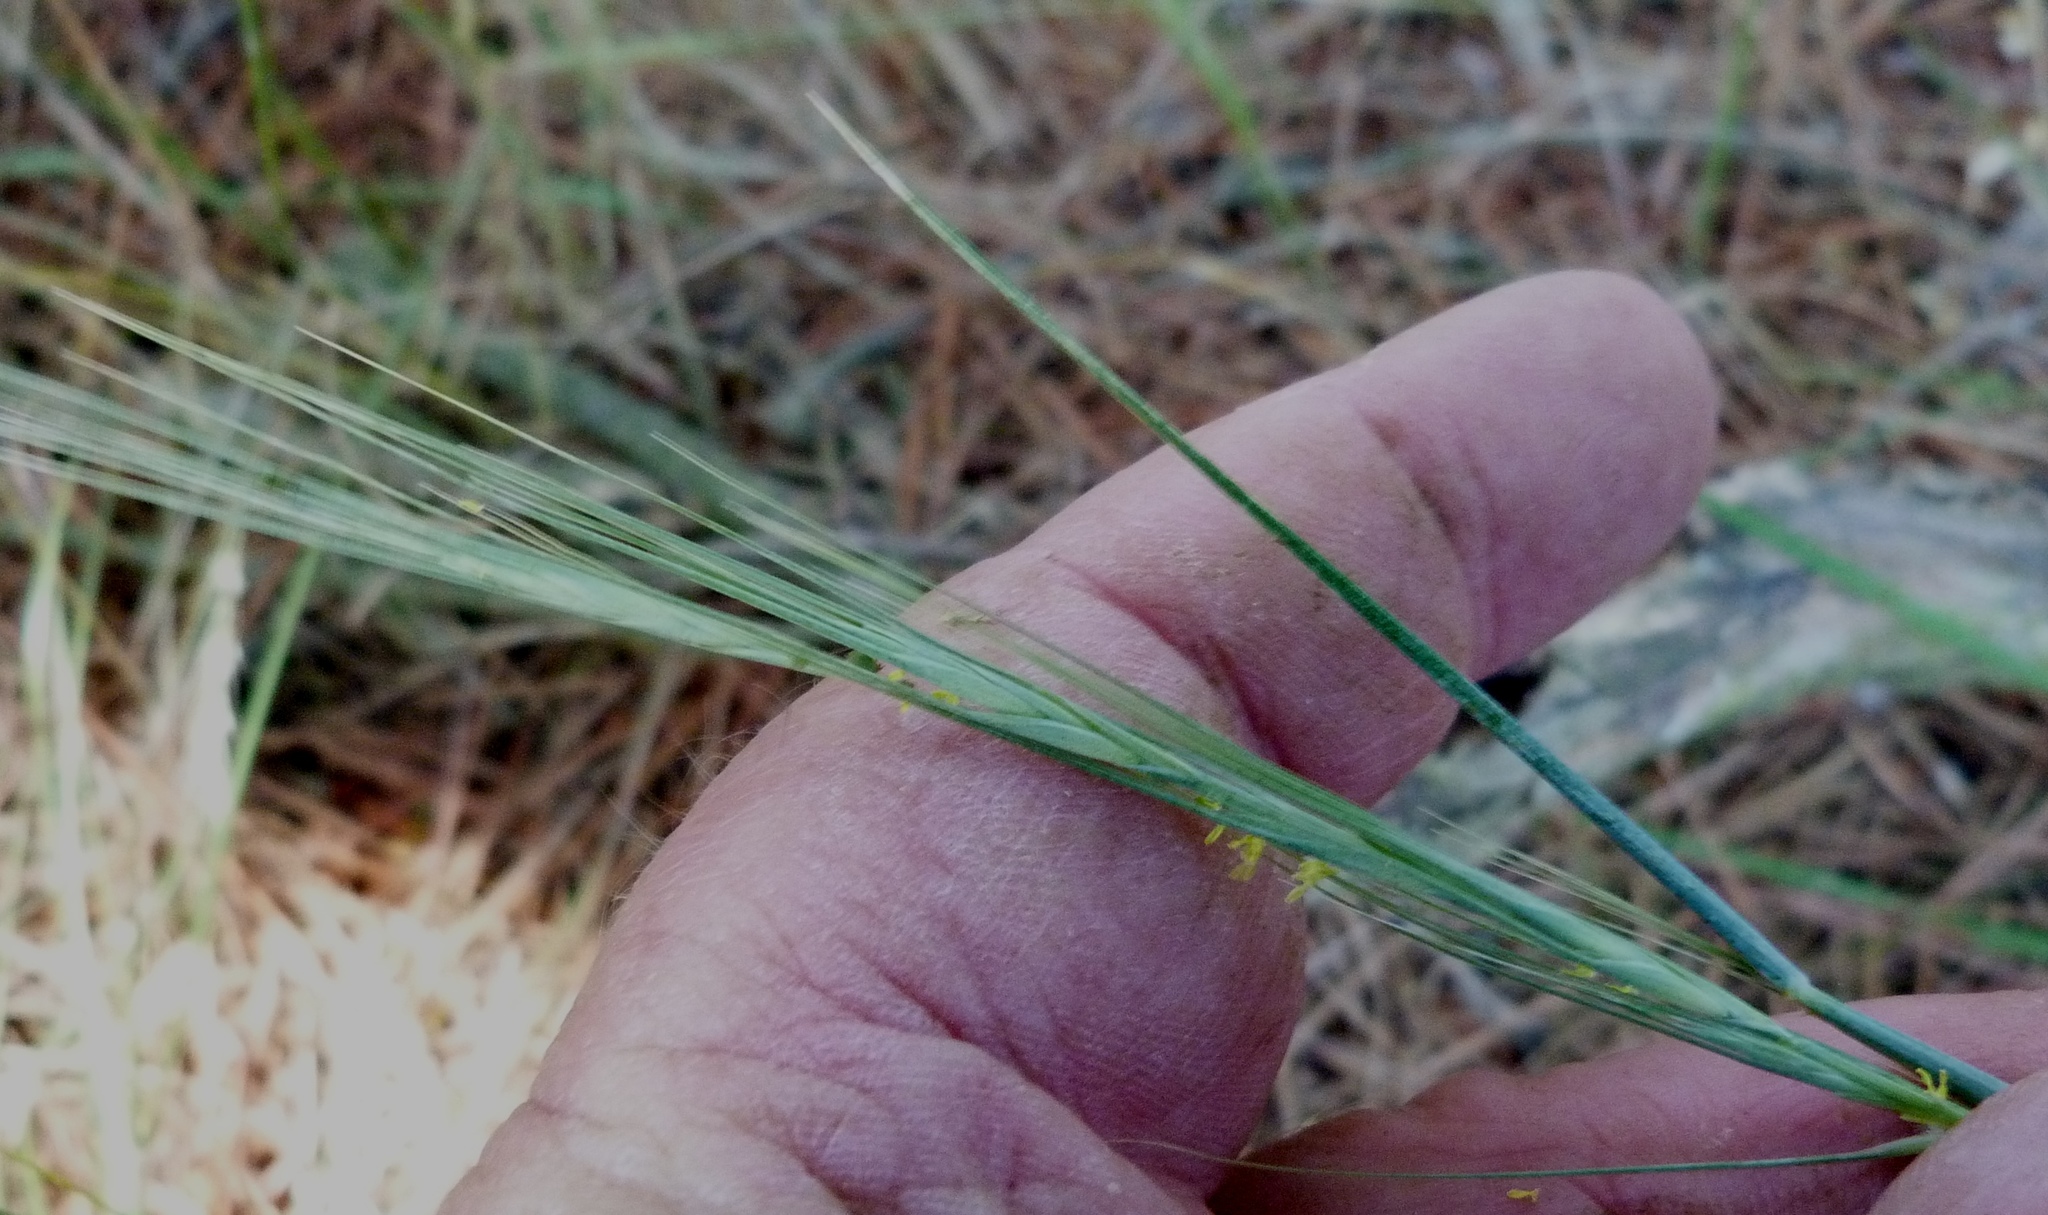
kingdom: Plantae
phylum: Tracheophyta
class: Liliopsida
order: Poales
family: Poaceae
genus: Anthosachne
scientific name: Anthosachne solandri
